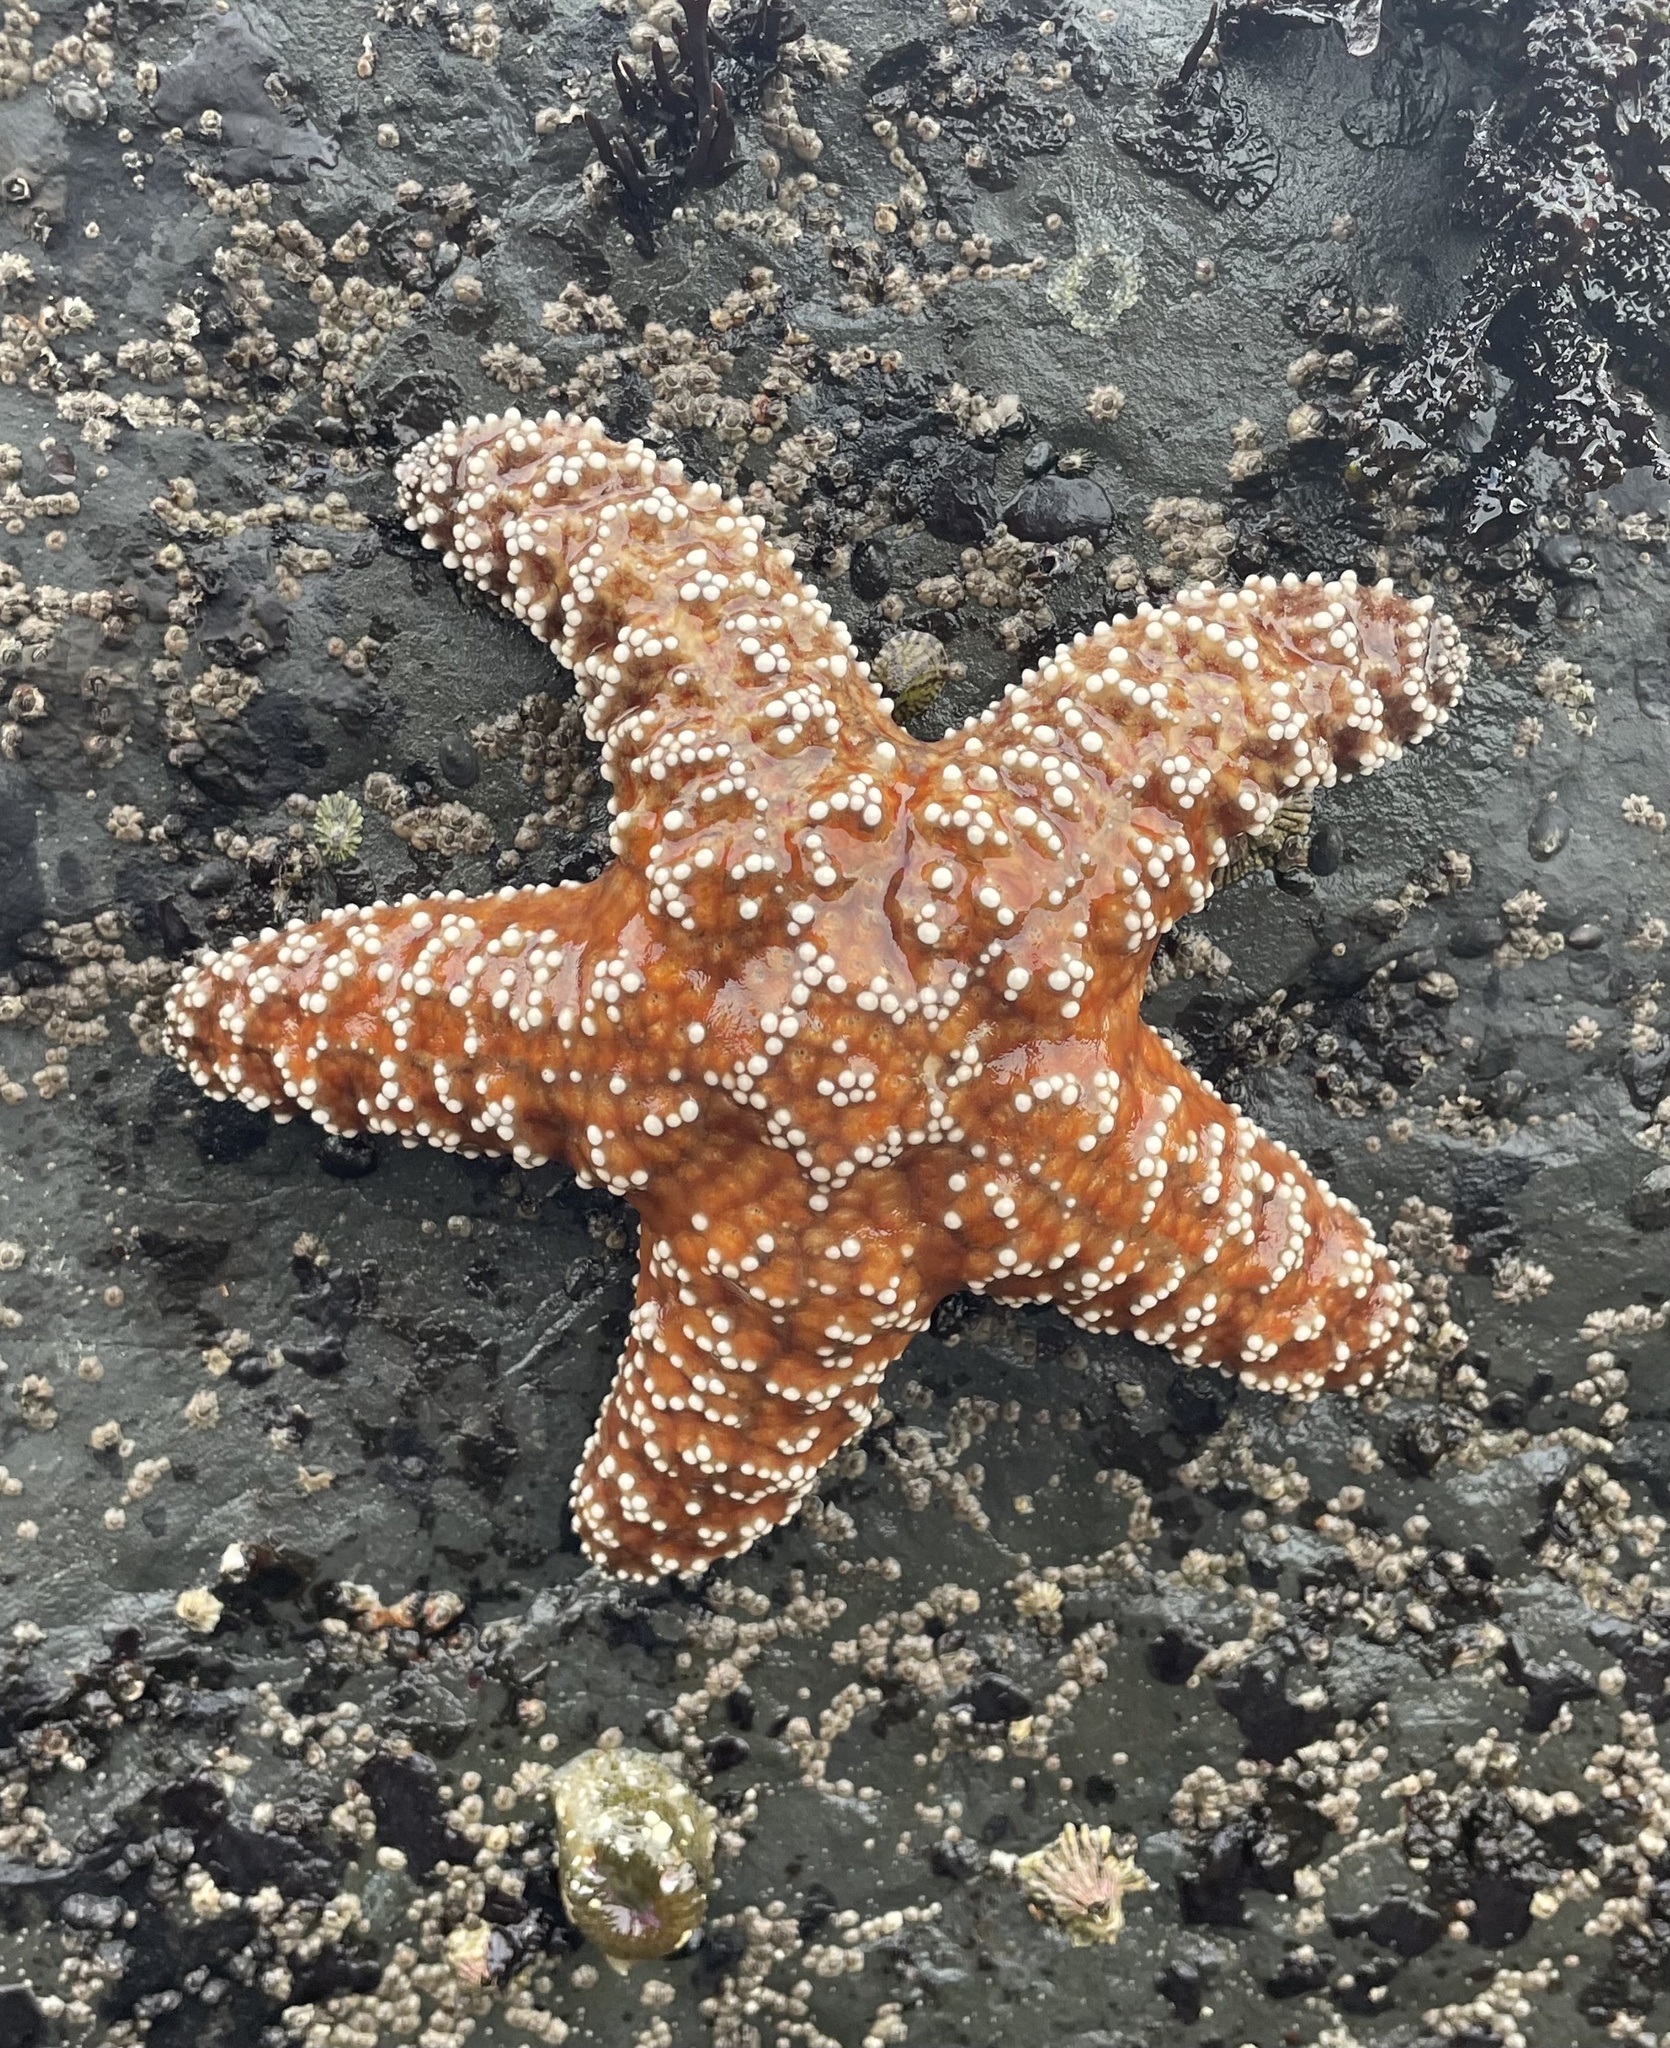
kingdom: Animalia
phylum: Echinodermata
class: Asteroidea
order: Forcipulatida
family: Asteriidae
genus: Pisaster
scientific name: Pisaster ochraceus
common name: Ochre stars
